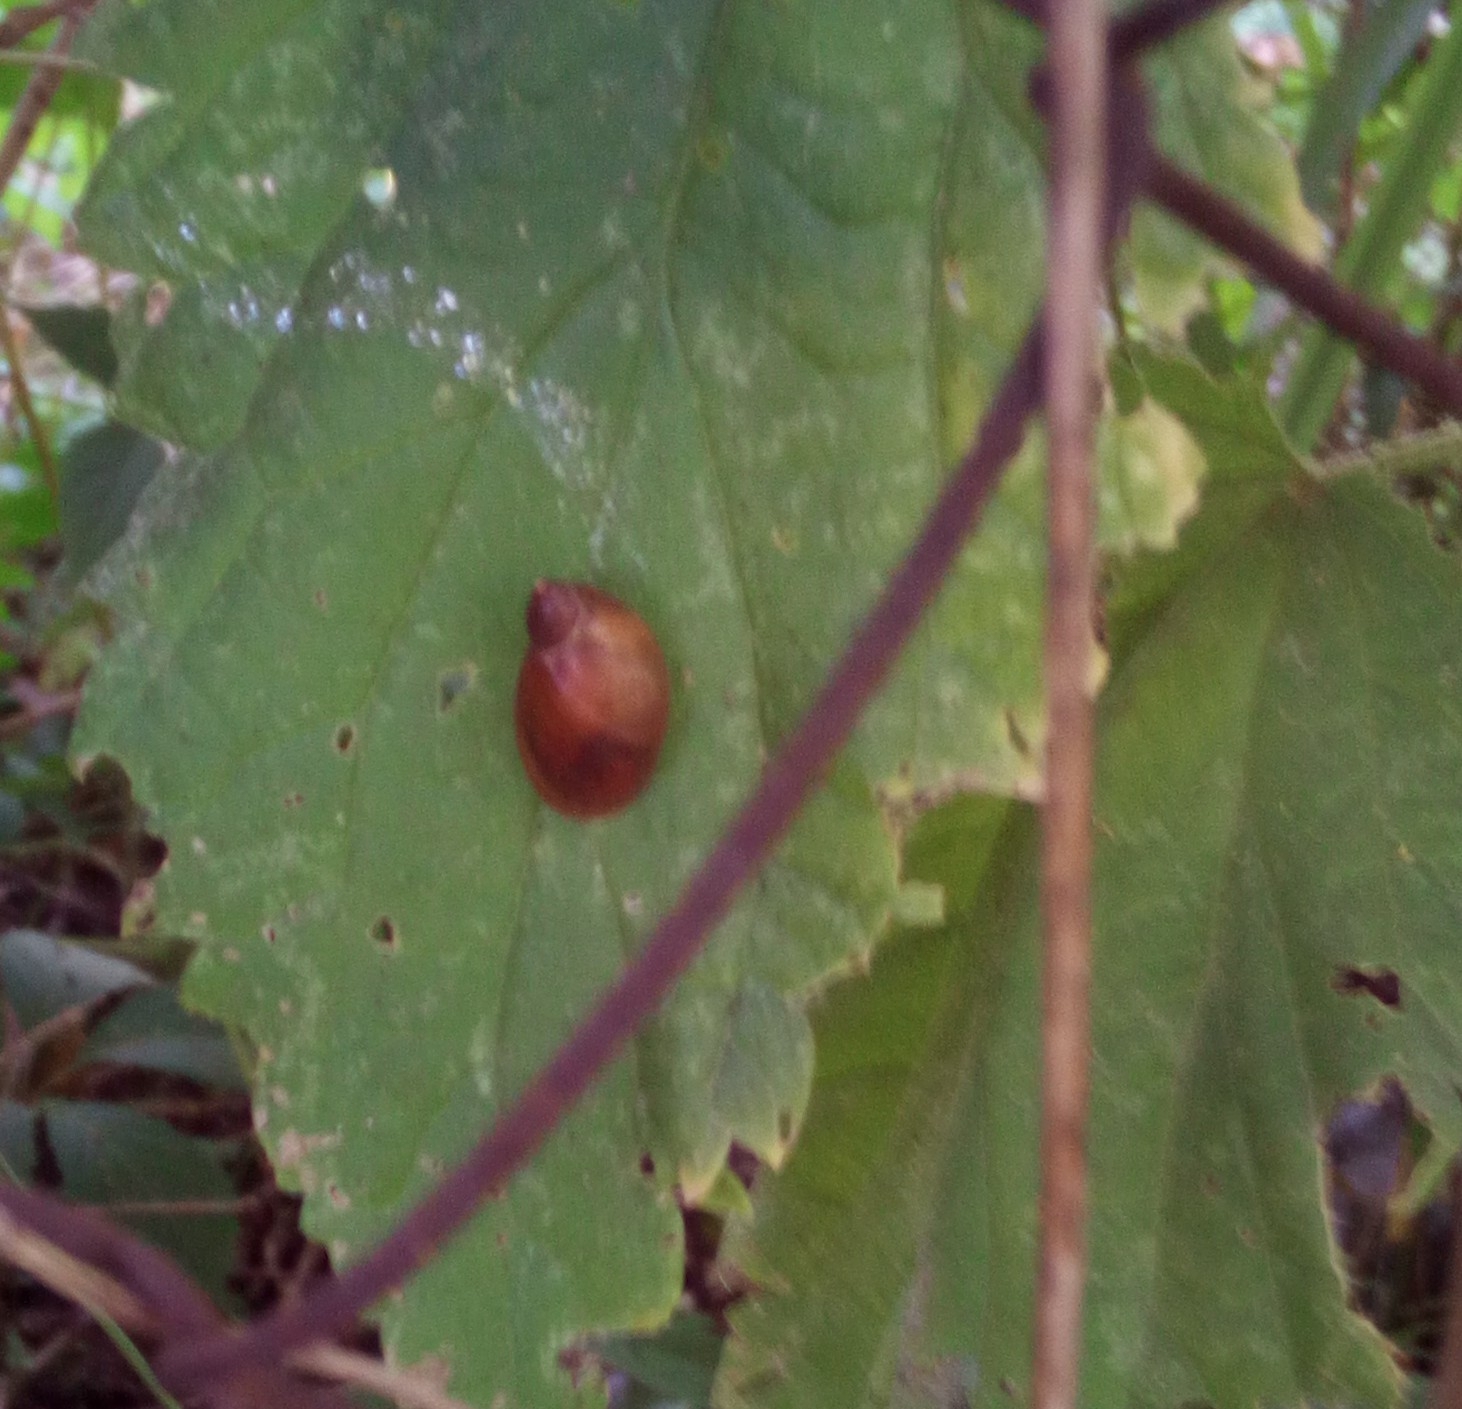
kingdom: Animalia
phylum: Mollusca
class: Gastropoda
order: Stylommatophora
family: Succineidae
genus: Succinea
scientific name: Succinea putris
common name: European ambersnail
